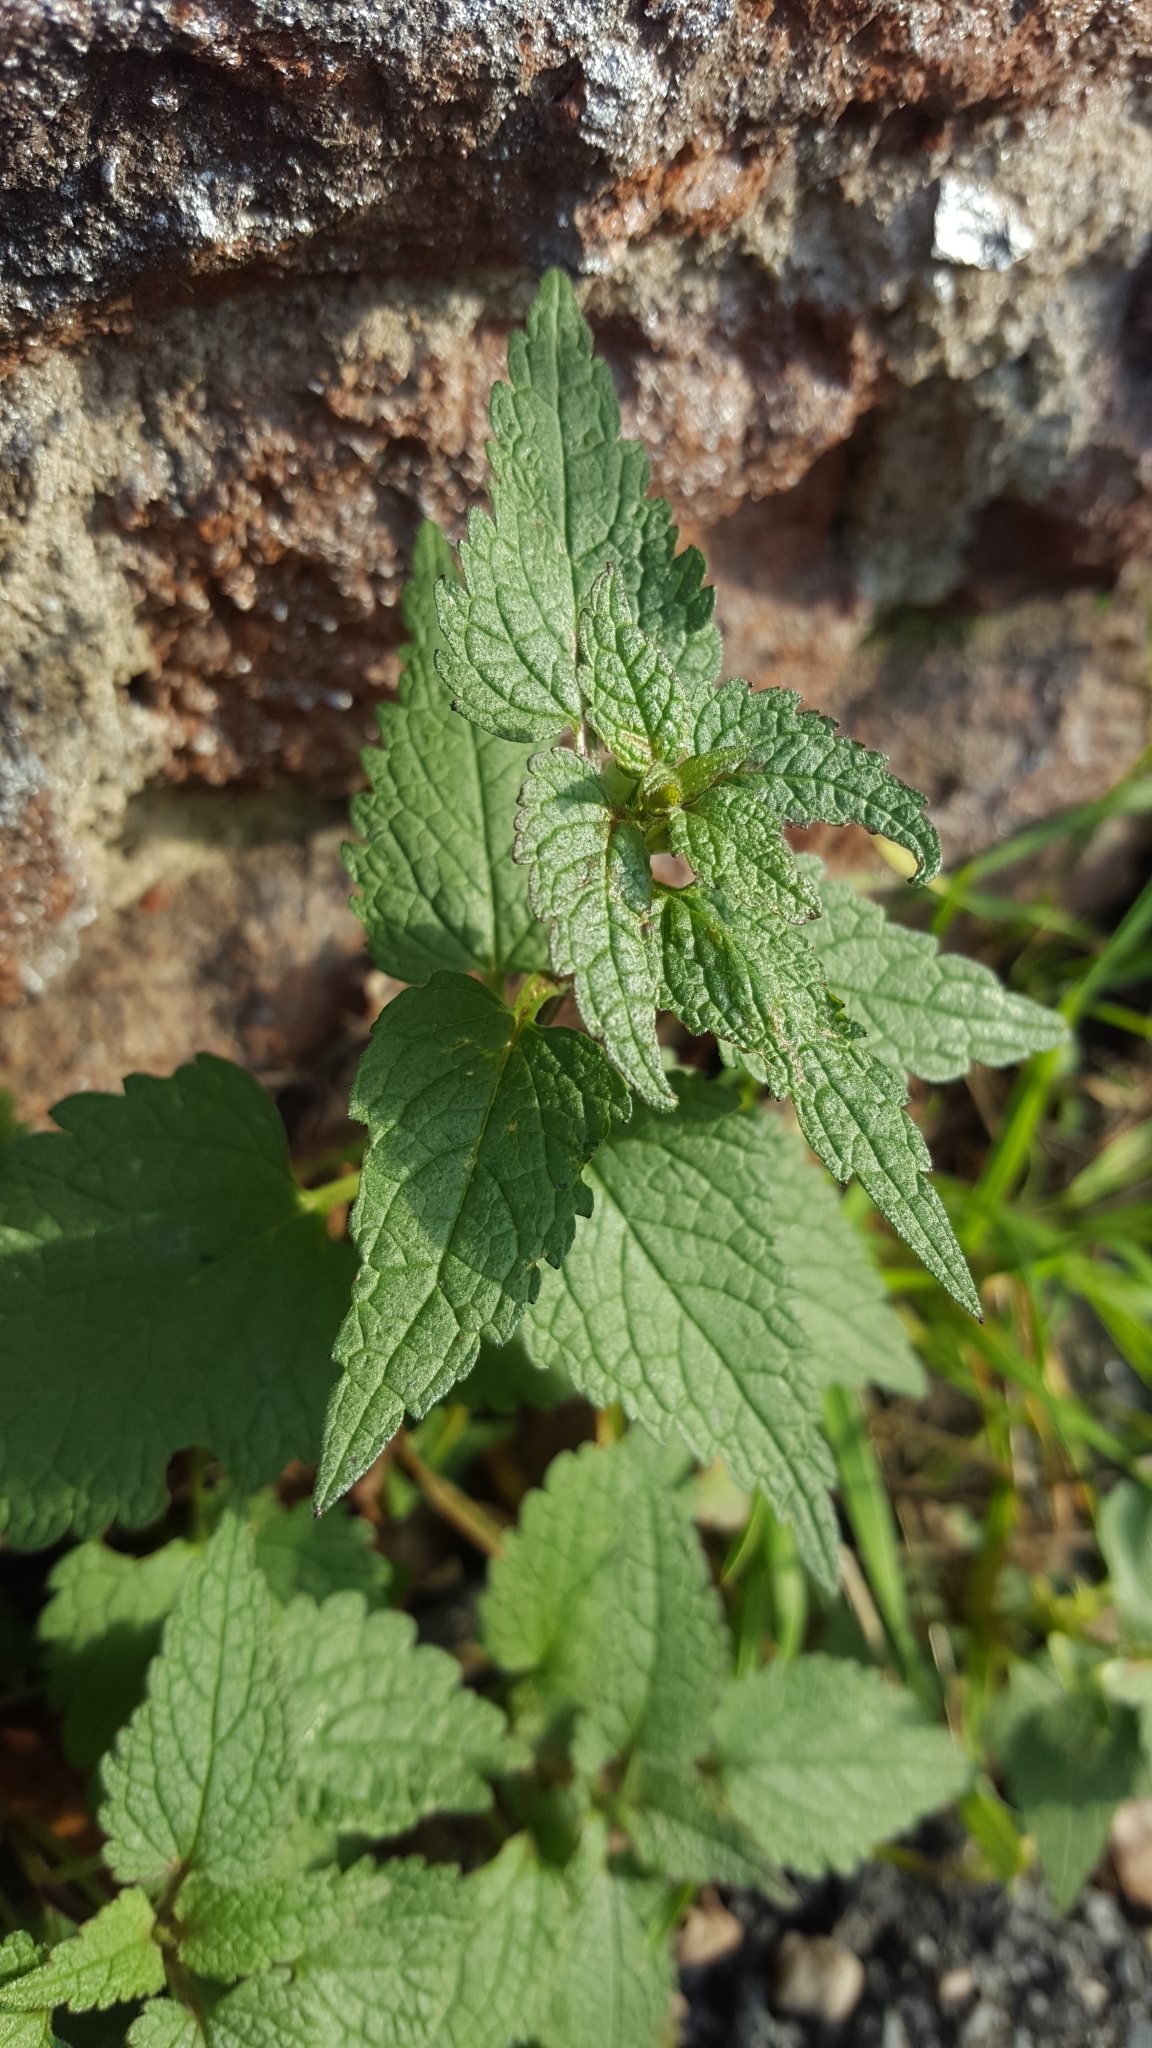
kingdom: Plantae
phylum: Tracheophyta
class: Magnoliopsida
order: Lamiales
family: Lamiaceae
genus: Lamium
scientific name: Lamium album
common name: White dead-nettle
